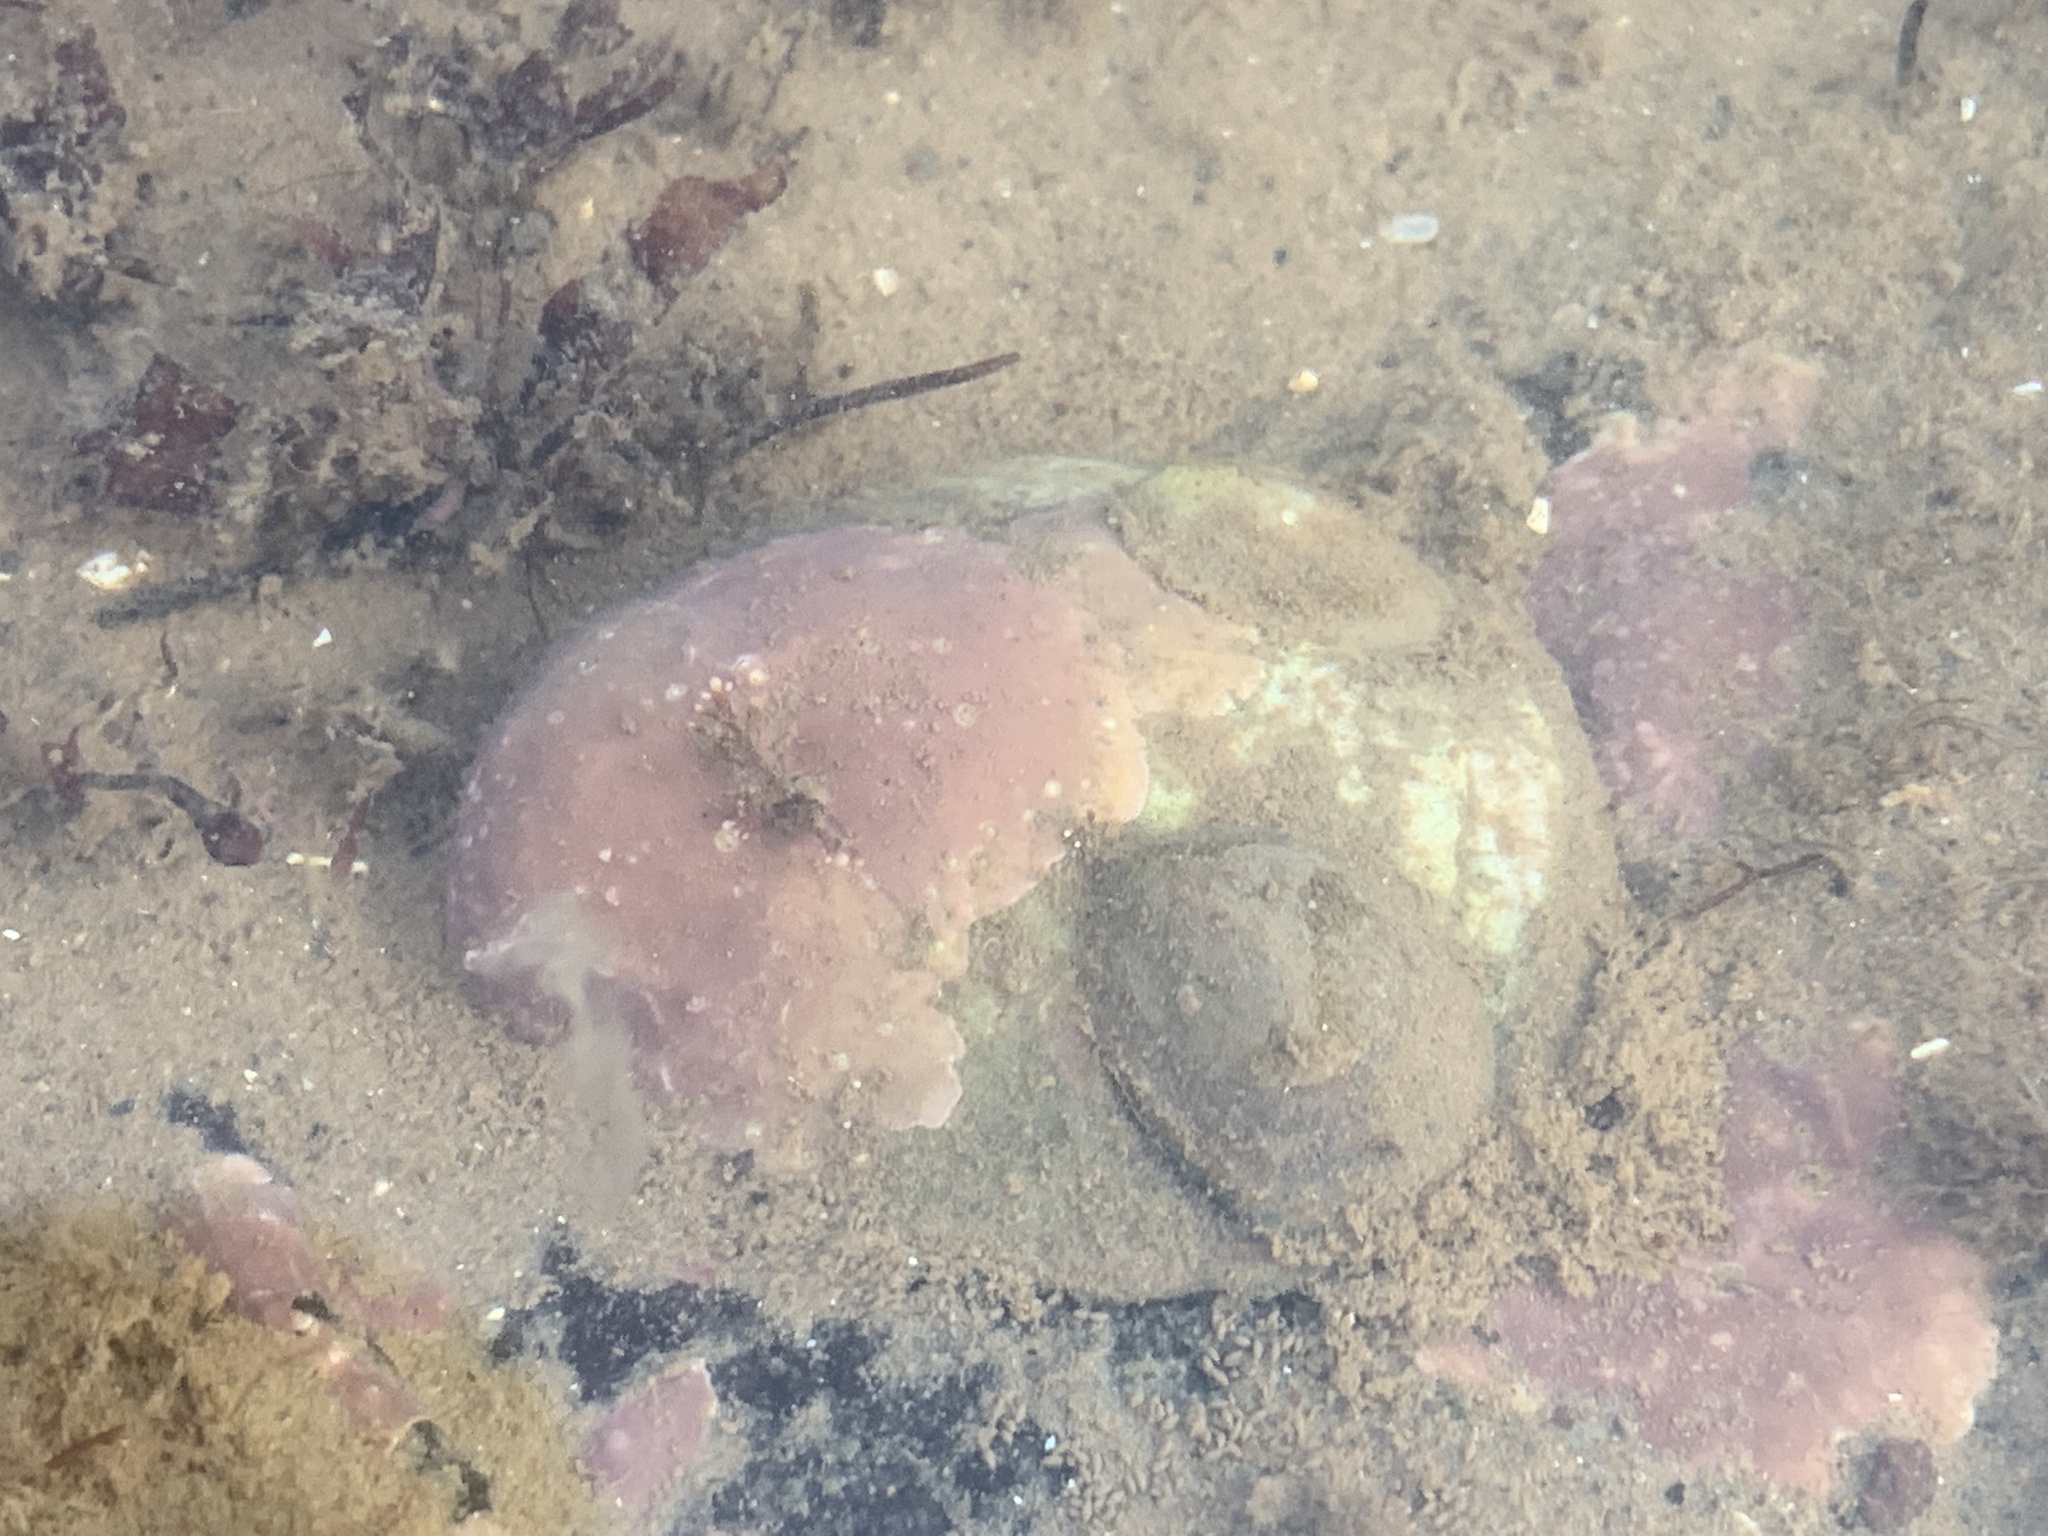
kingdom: Animalia
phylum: Mollusca
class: Gastropoda
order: Littorinimorpha
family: Calyptraeidae
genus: Crepidula
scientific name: Crepidula fornicata
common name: Slipper limpet
